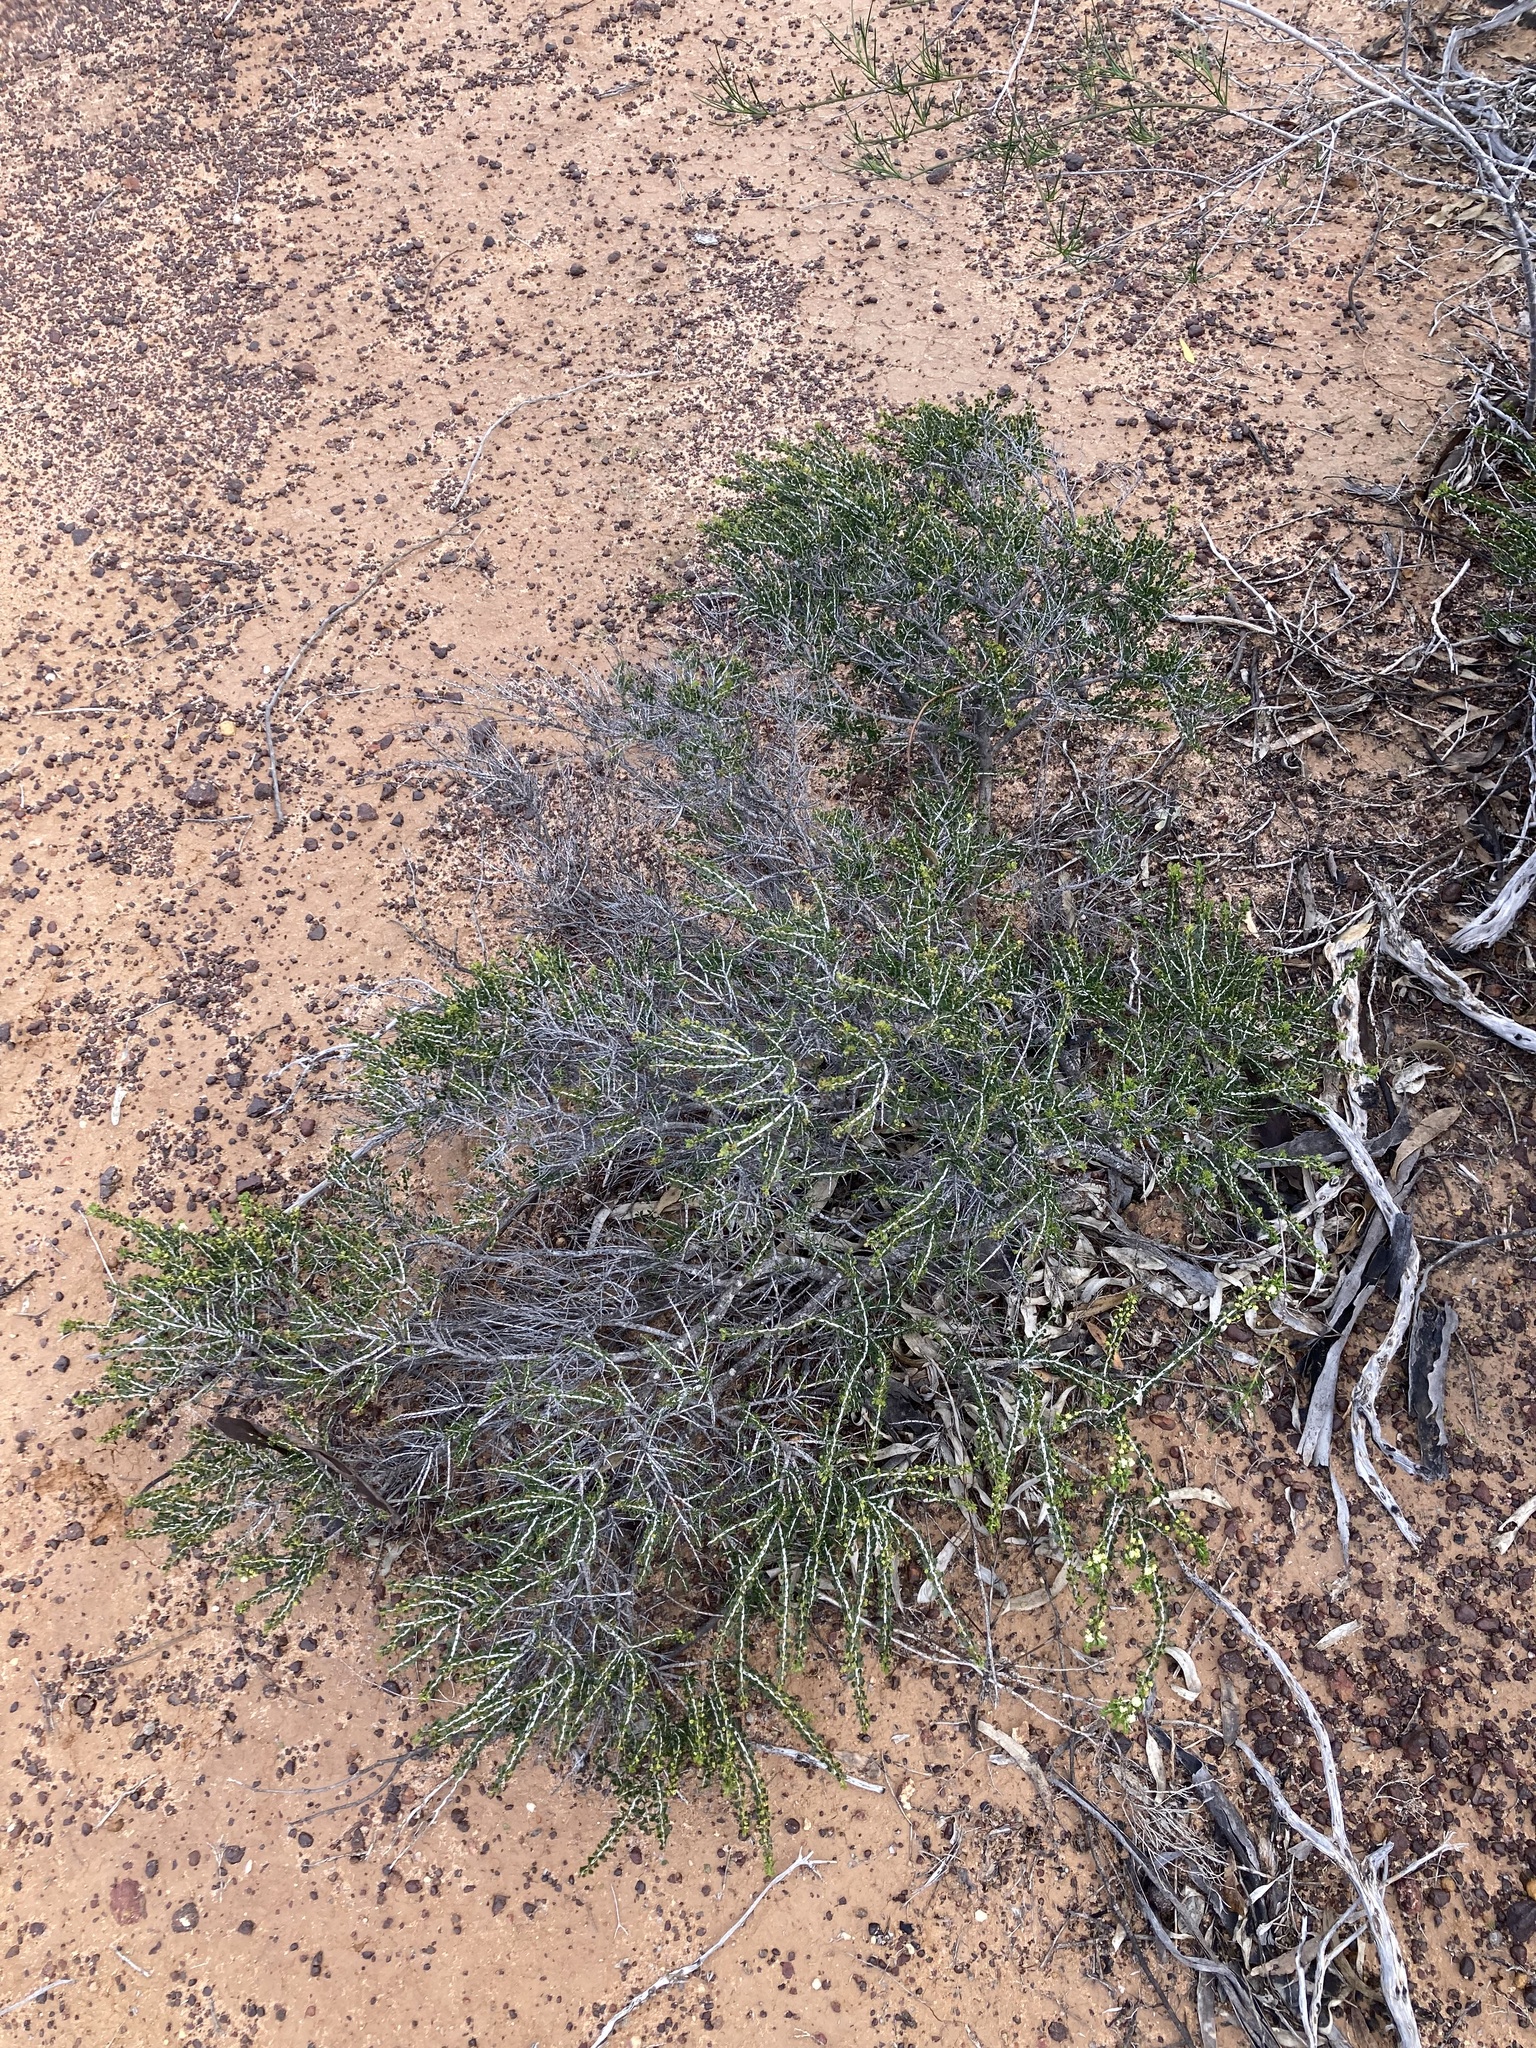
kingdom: Plantae
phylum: Tracheophyta
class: Magnoliopsida
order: Fabales
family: Fabaceae
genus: Acacia
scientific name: Acacia bidentata
